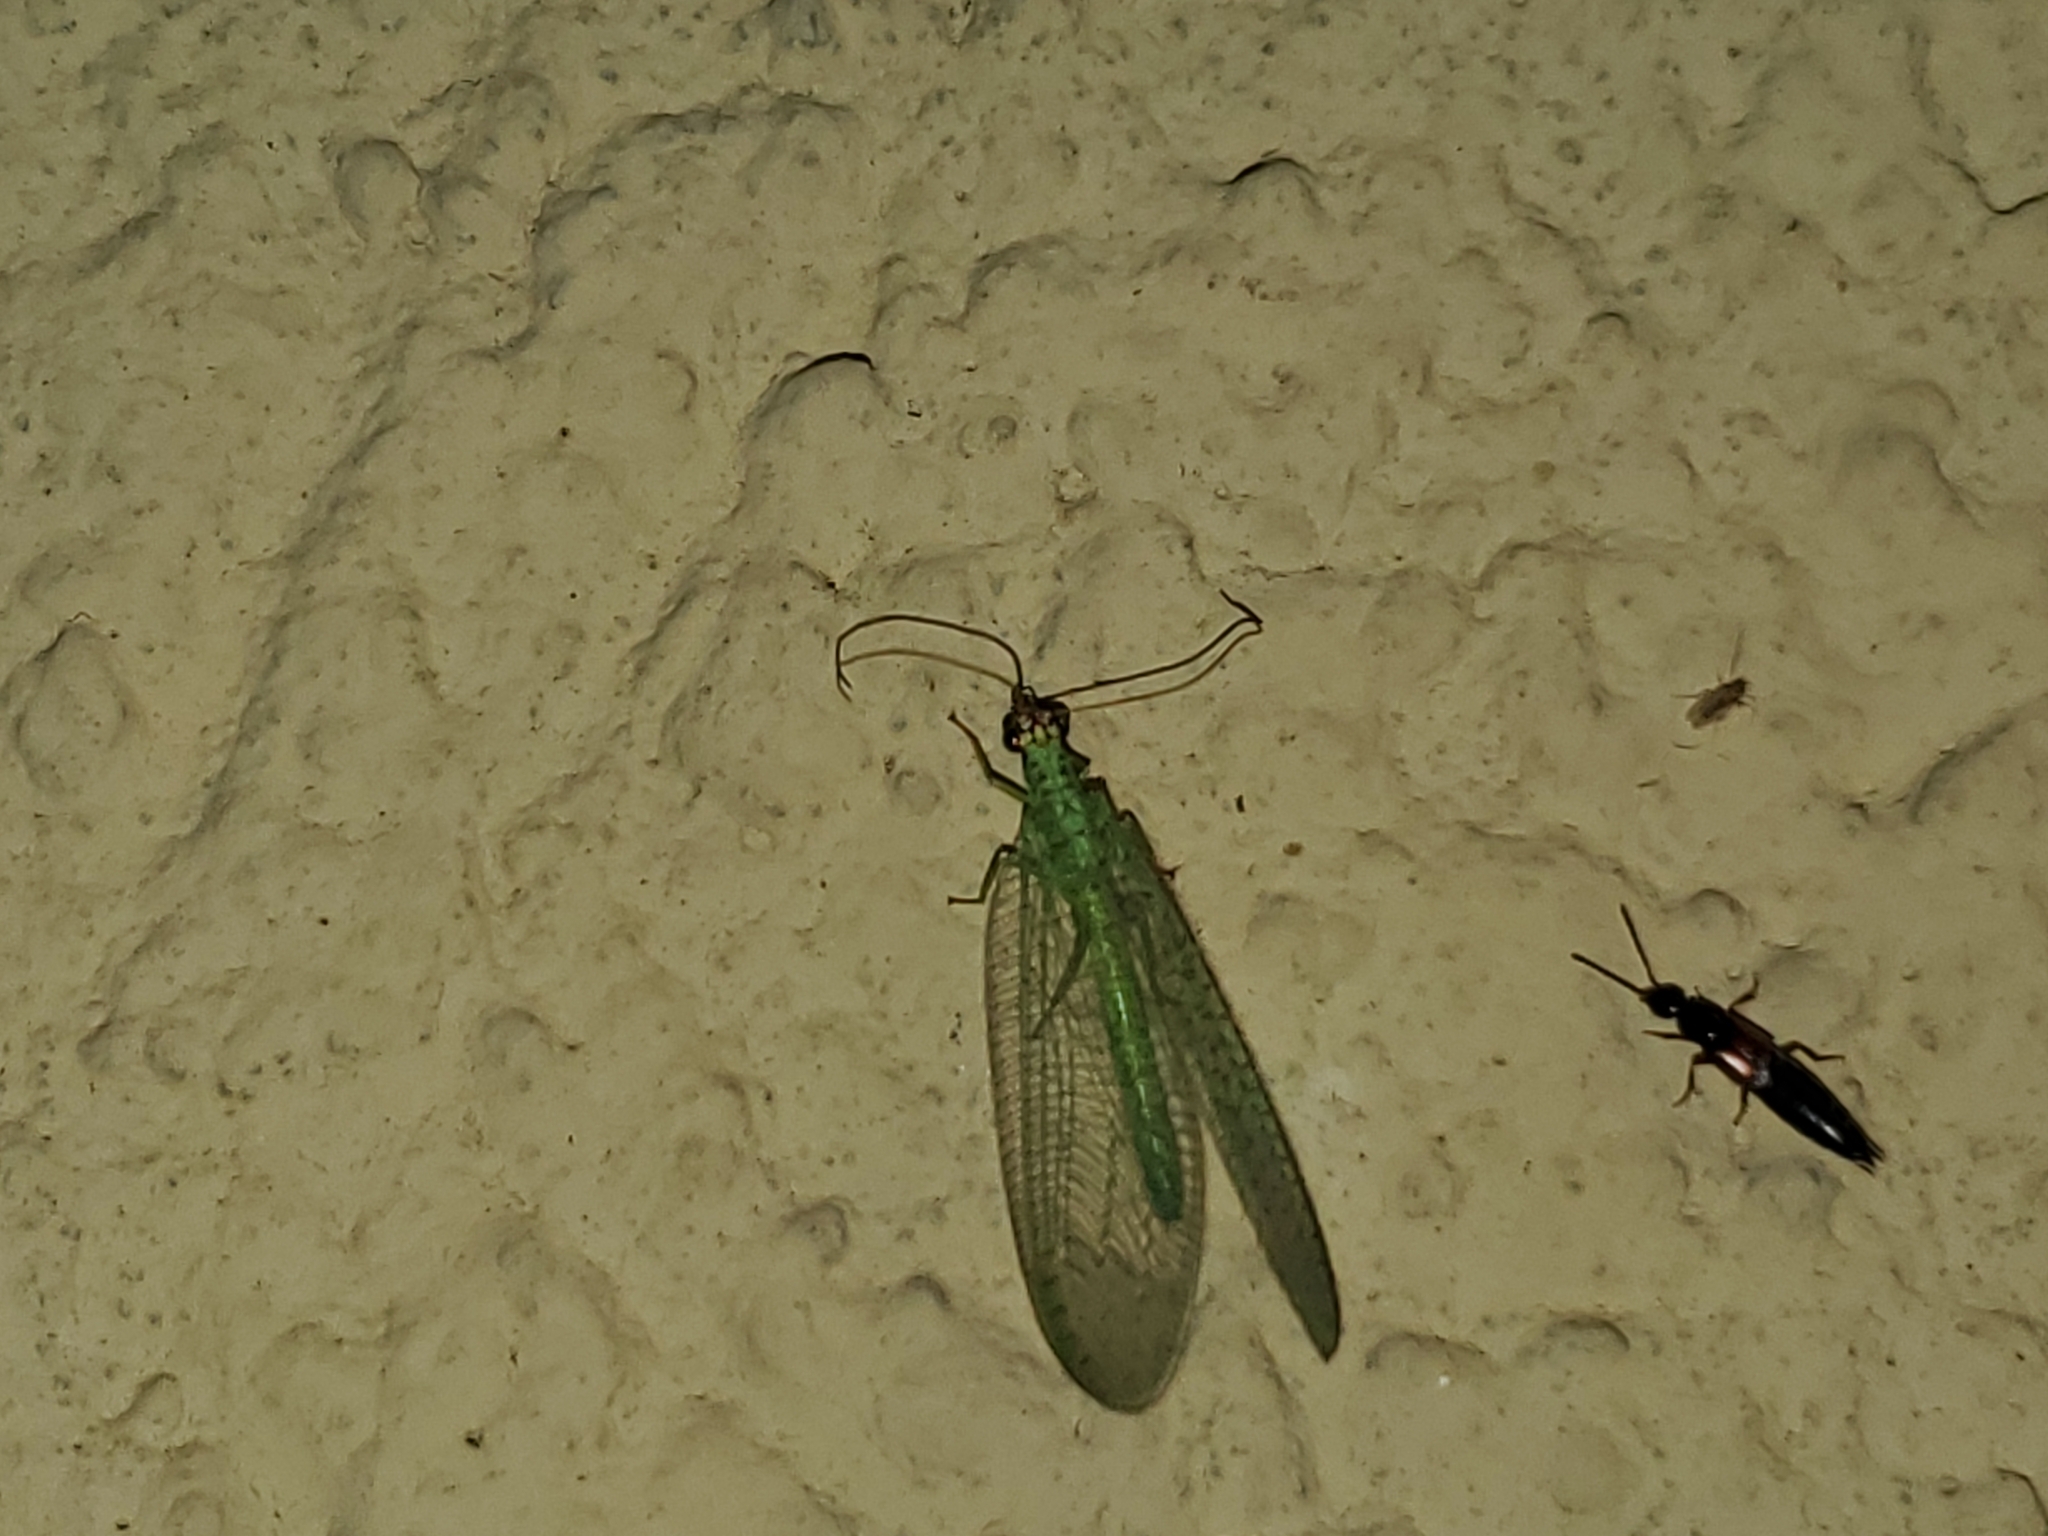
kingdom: Animalia
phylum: Arthropoda
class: Insecta
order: Neuroptera
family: Chrysopidae
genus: Chrysopa
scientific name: Chrysopa oculata
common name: Golden-eyed lacewing
